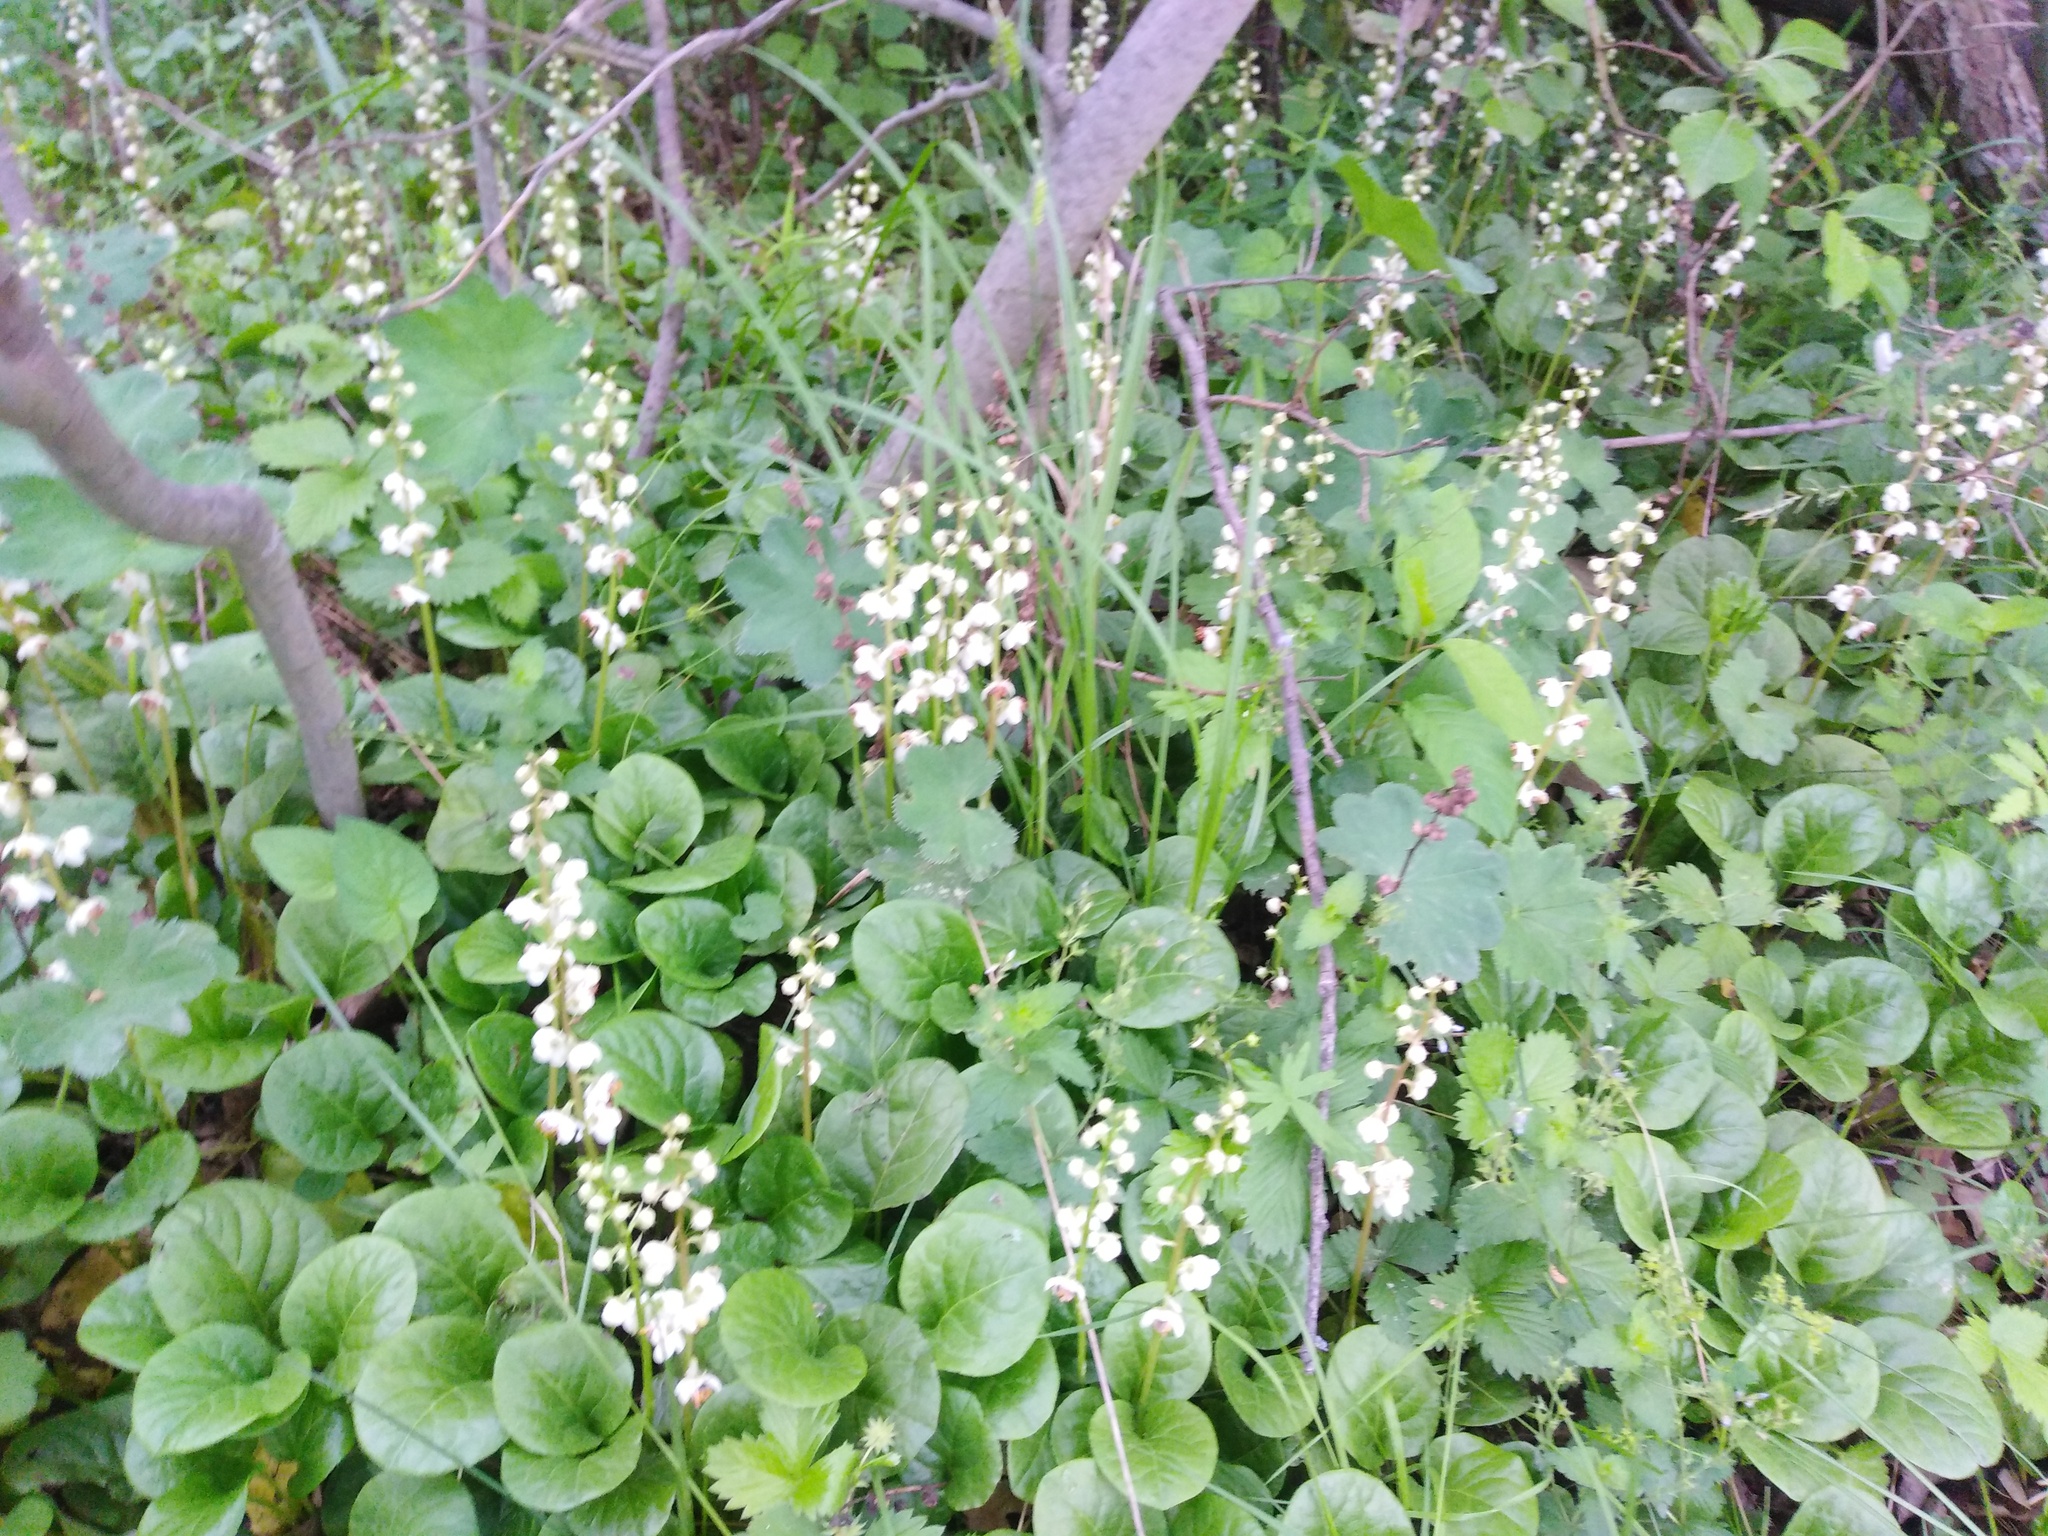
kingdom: Plantae
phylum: Tracheophyta
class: Magnoliopsida
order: Ericales
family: Ericaceae
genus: Pyrola
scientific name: Pyrola rotundifolia
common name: Round-leaved wintergreen
